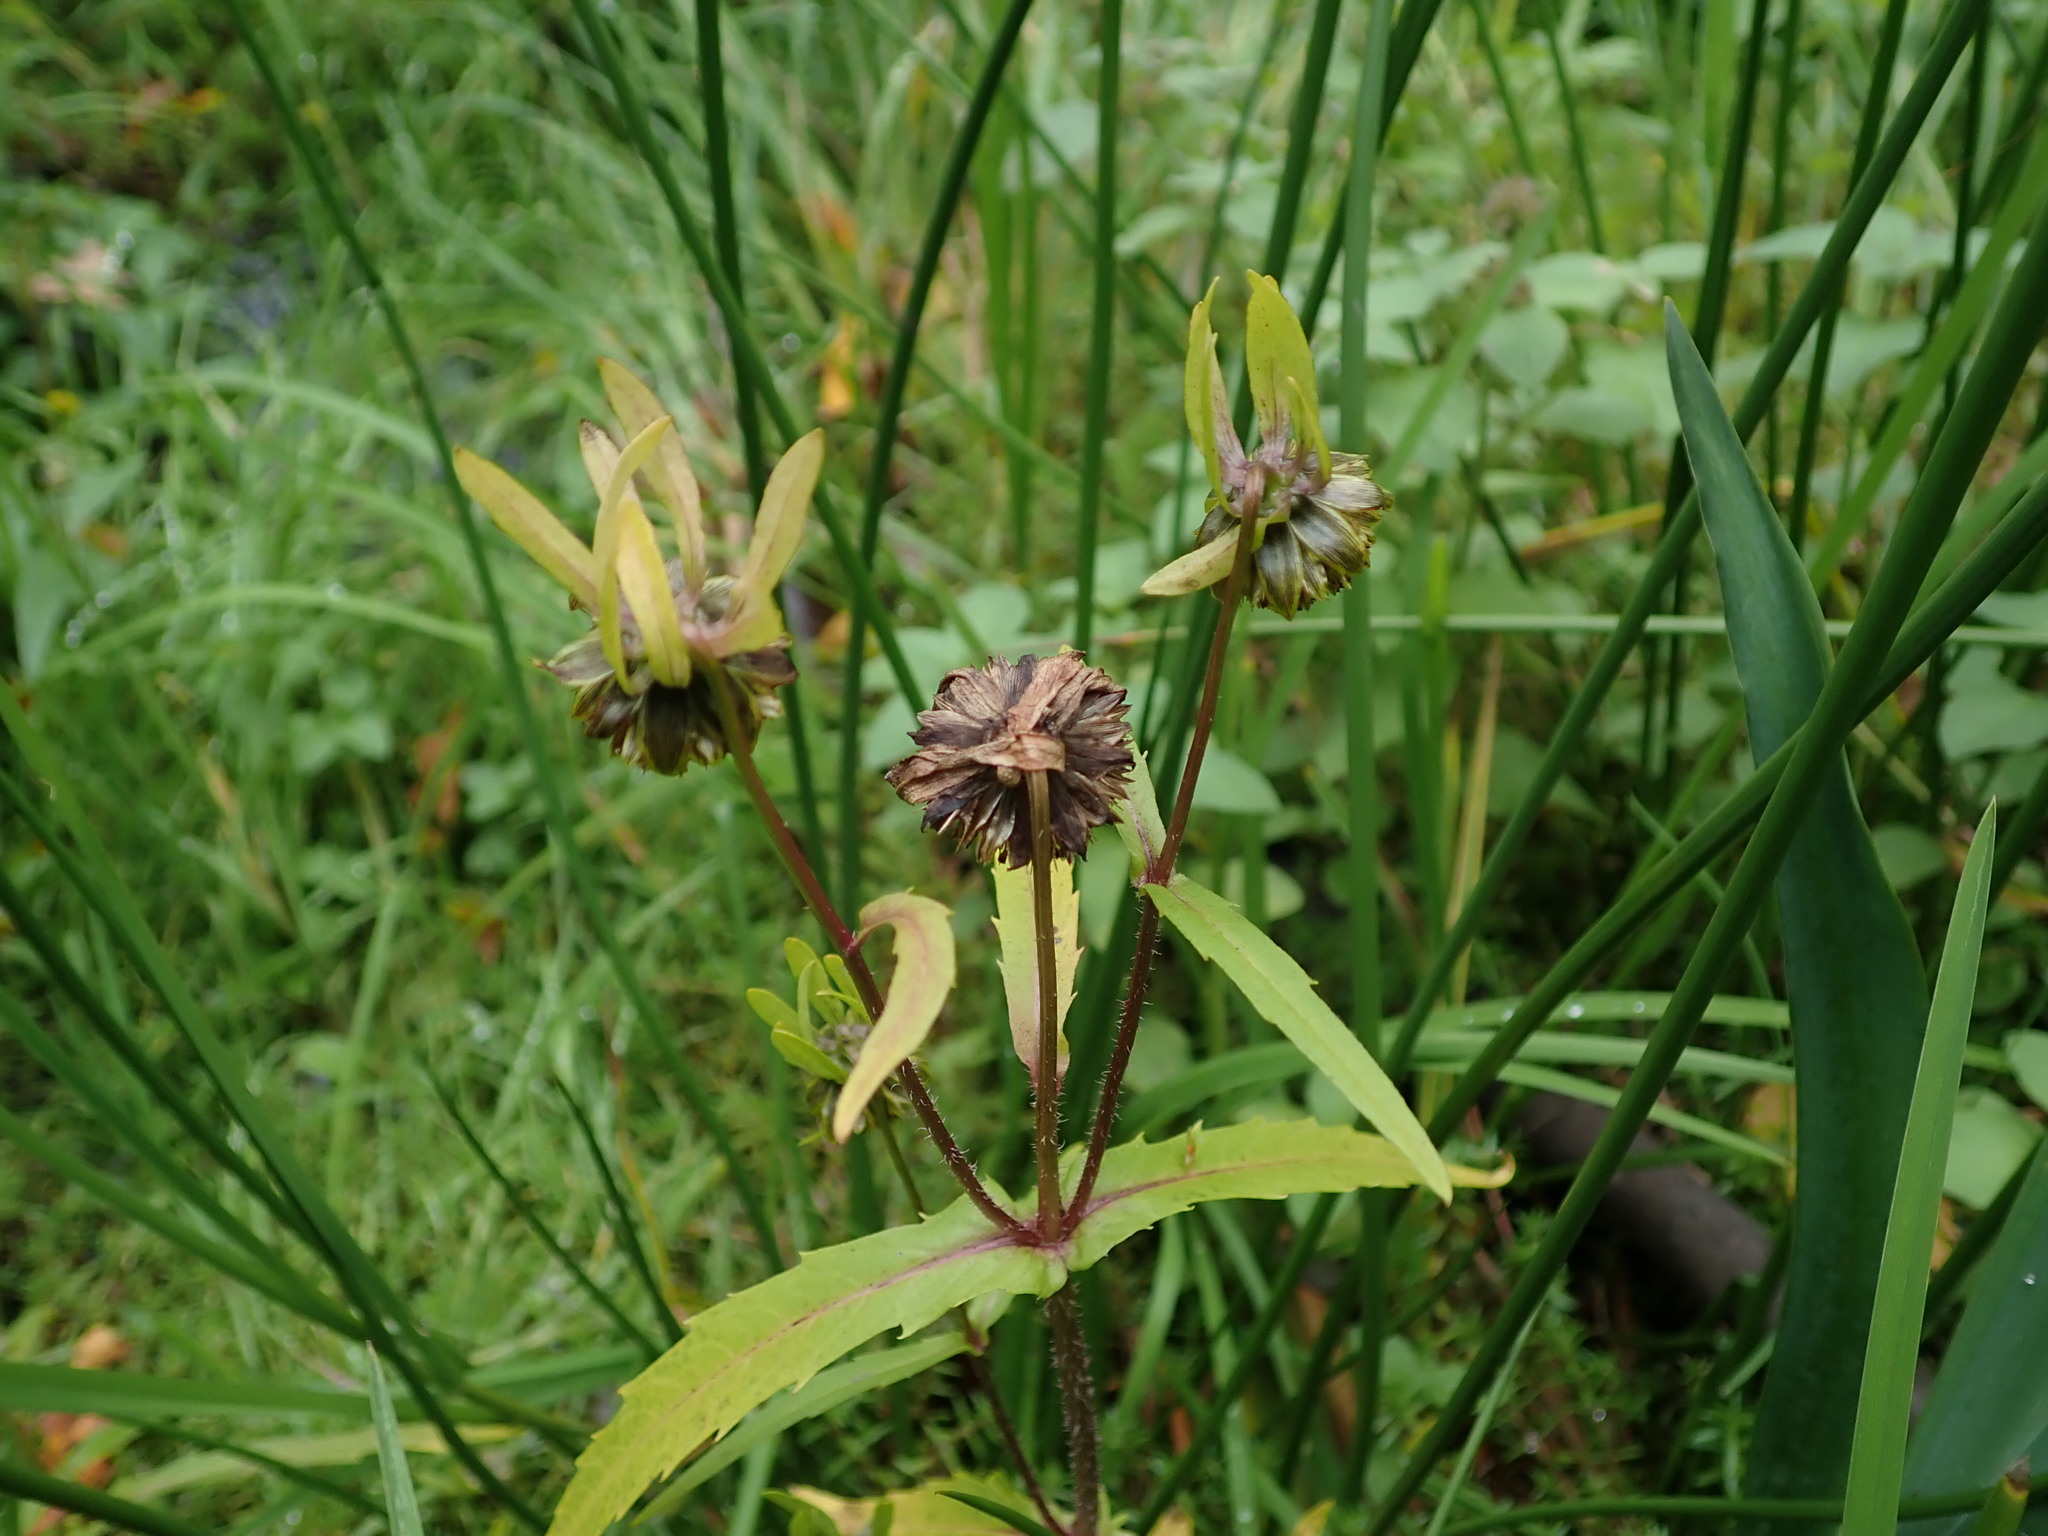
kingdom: Plantae
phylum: Tracheophyta
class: Magnoliopsida
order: Asterales
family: Asteraceae
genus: Bidens
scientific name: Bidens cernua
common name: Nodding bur-marigold
